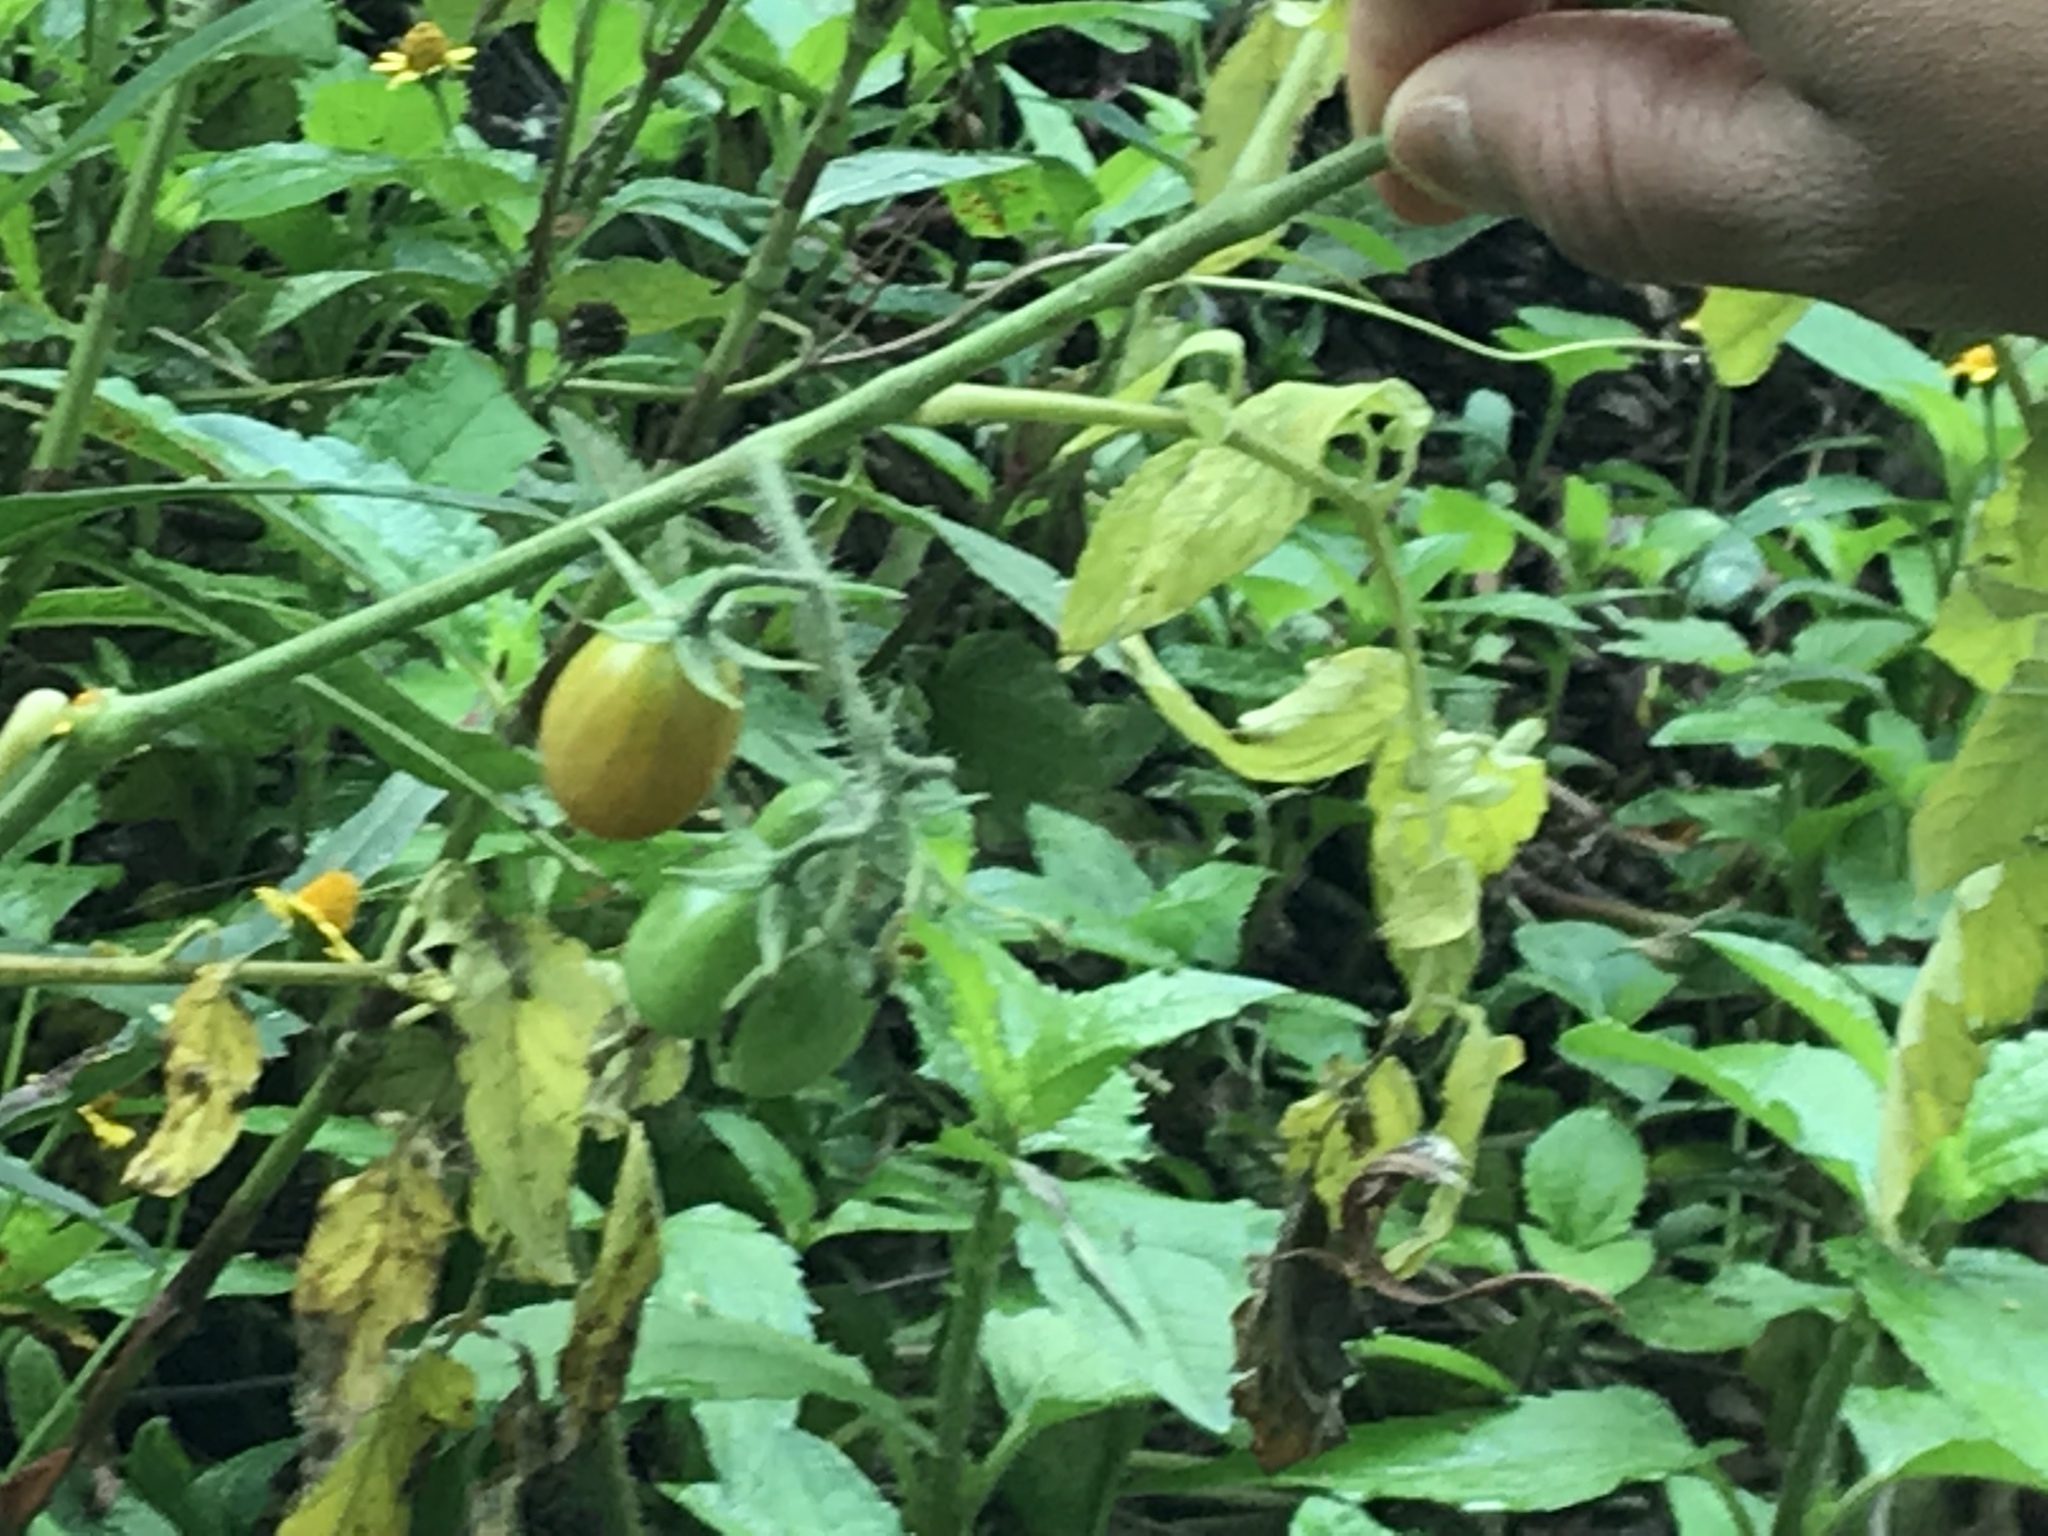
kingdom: Plantae
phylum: Tracheophyta
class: Magnoliopsida
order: Solanales
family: Solanaceae
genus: Solanum
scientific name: Solanum lycopersicum
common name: Garden tomato
